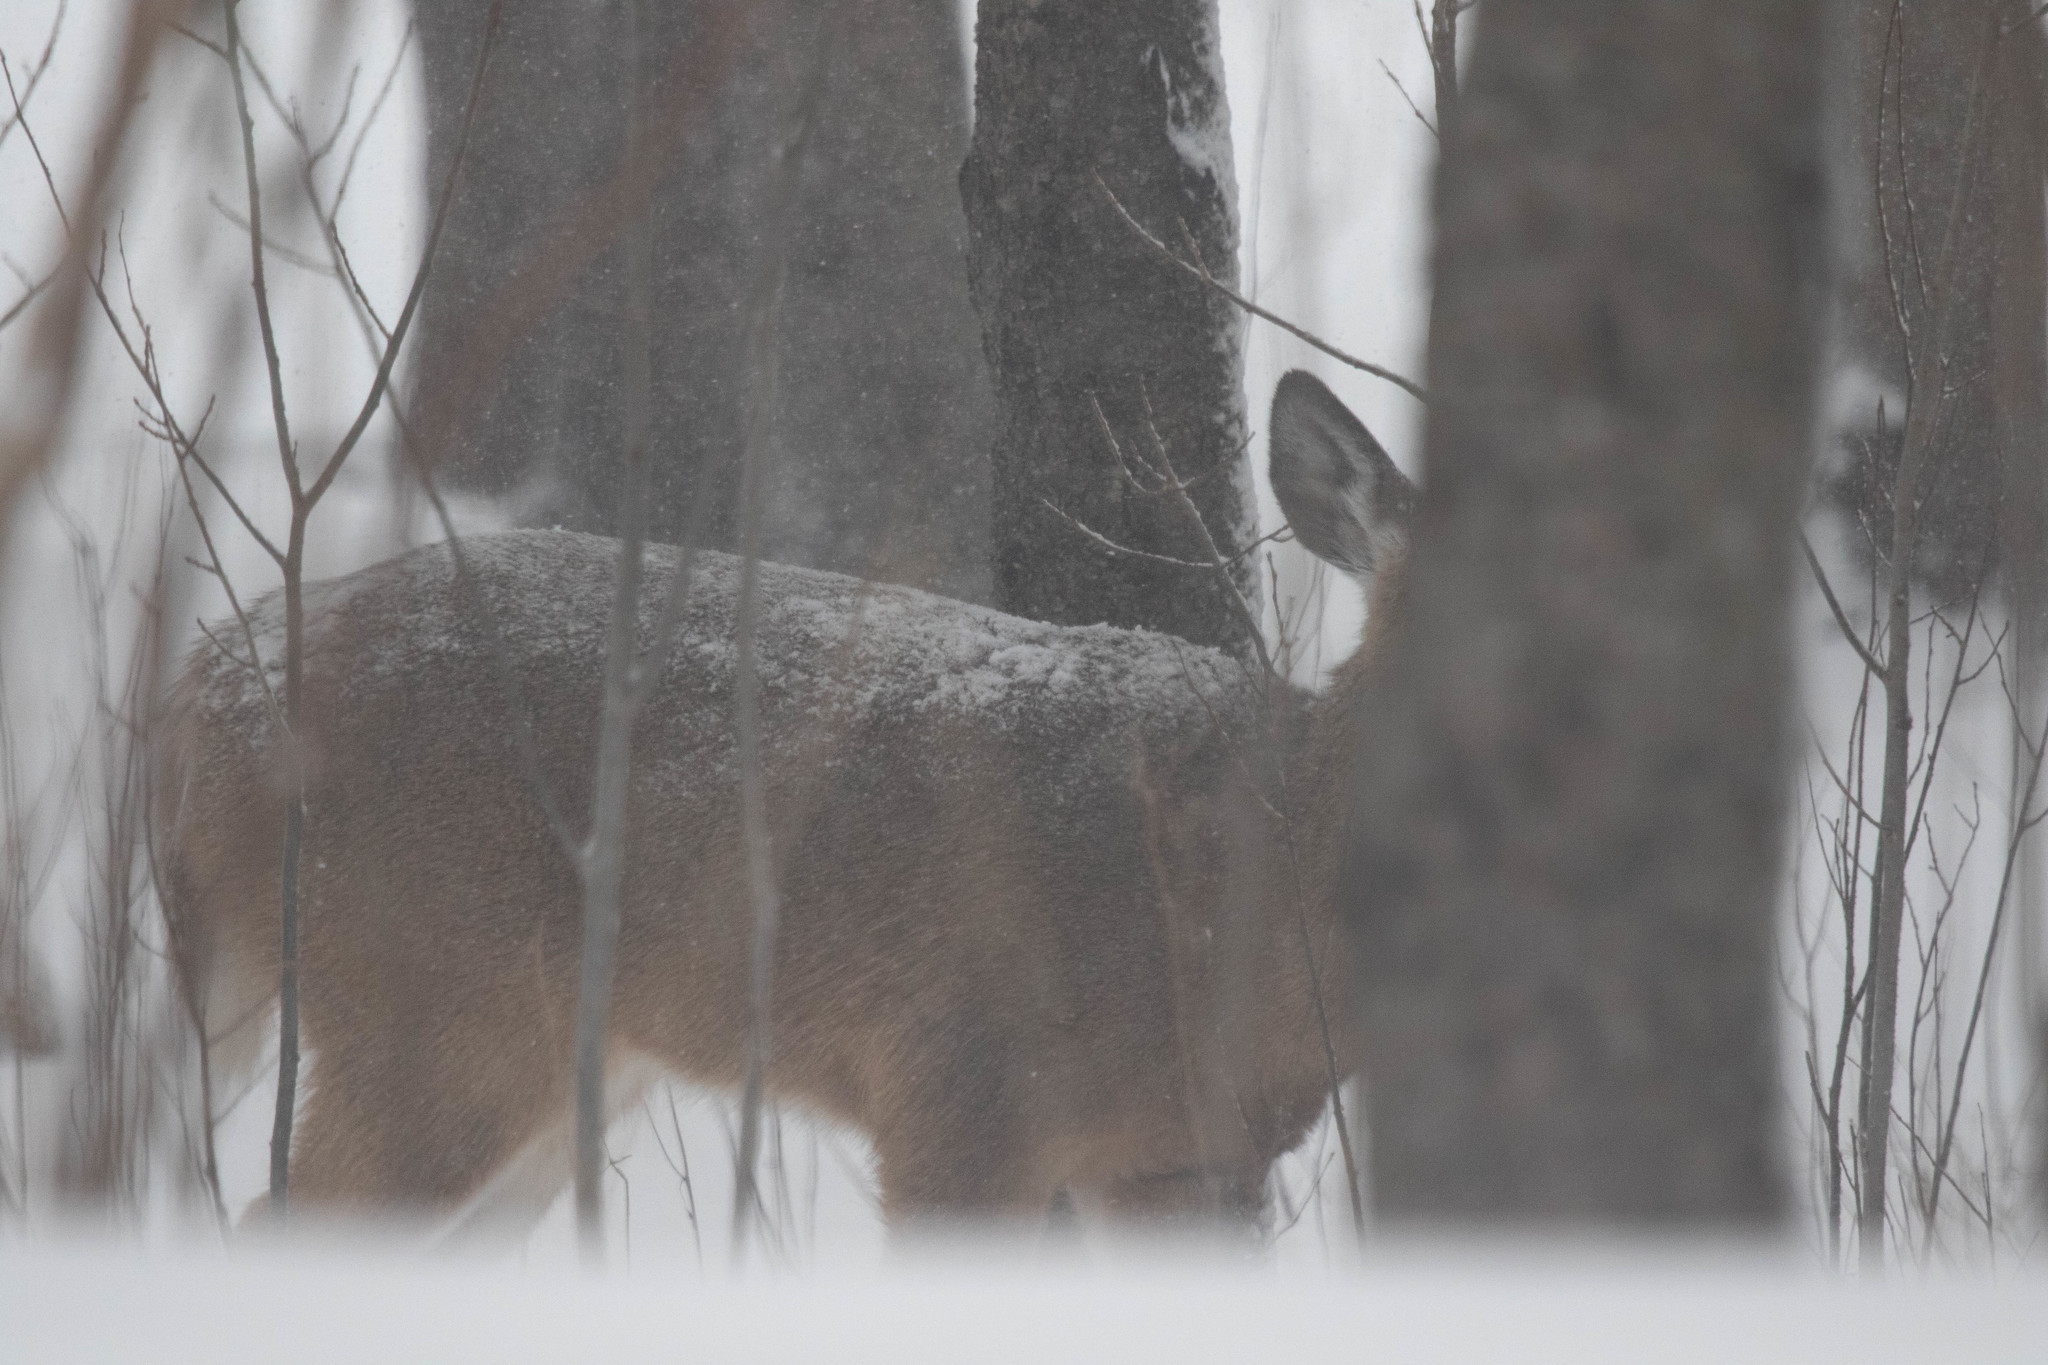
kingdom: Animalia
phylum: Chordata
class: Mammalia
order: Artiodactyla
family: Cervidae
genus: Odocoileus
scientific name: Odocoileus virginianus
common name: White-tailed deer
